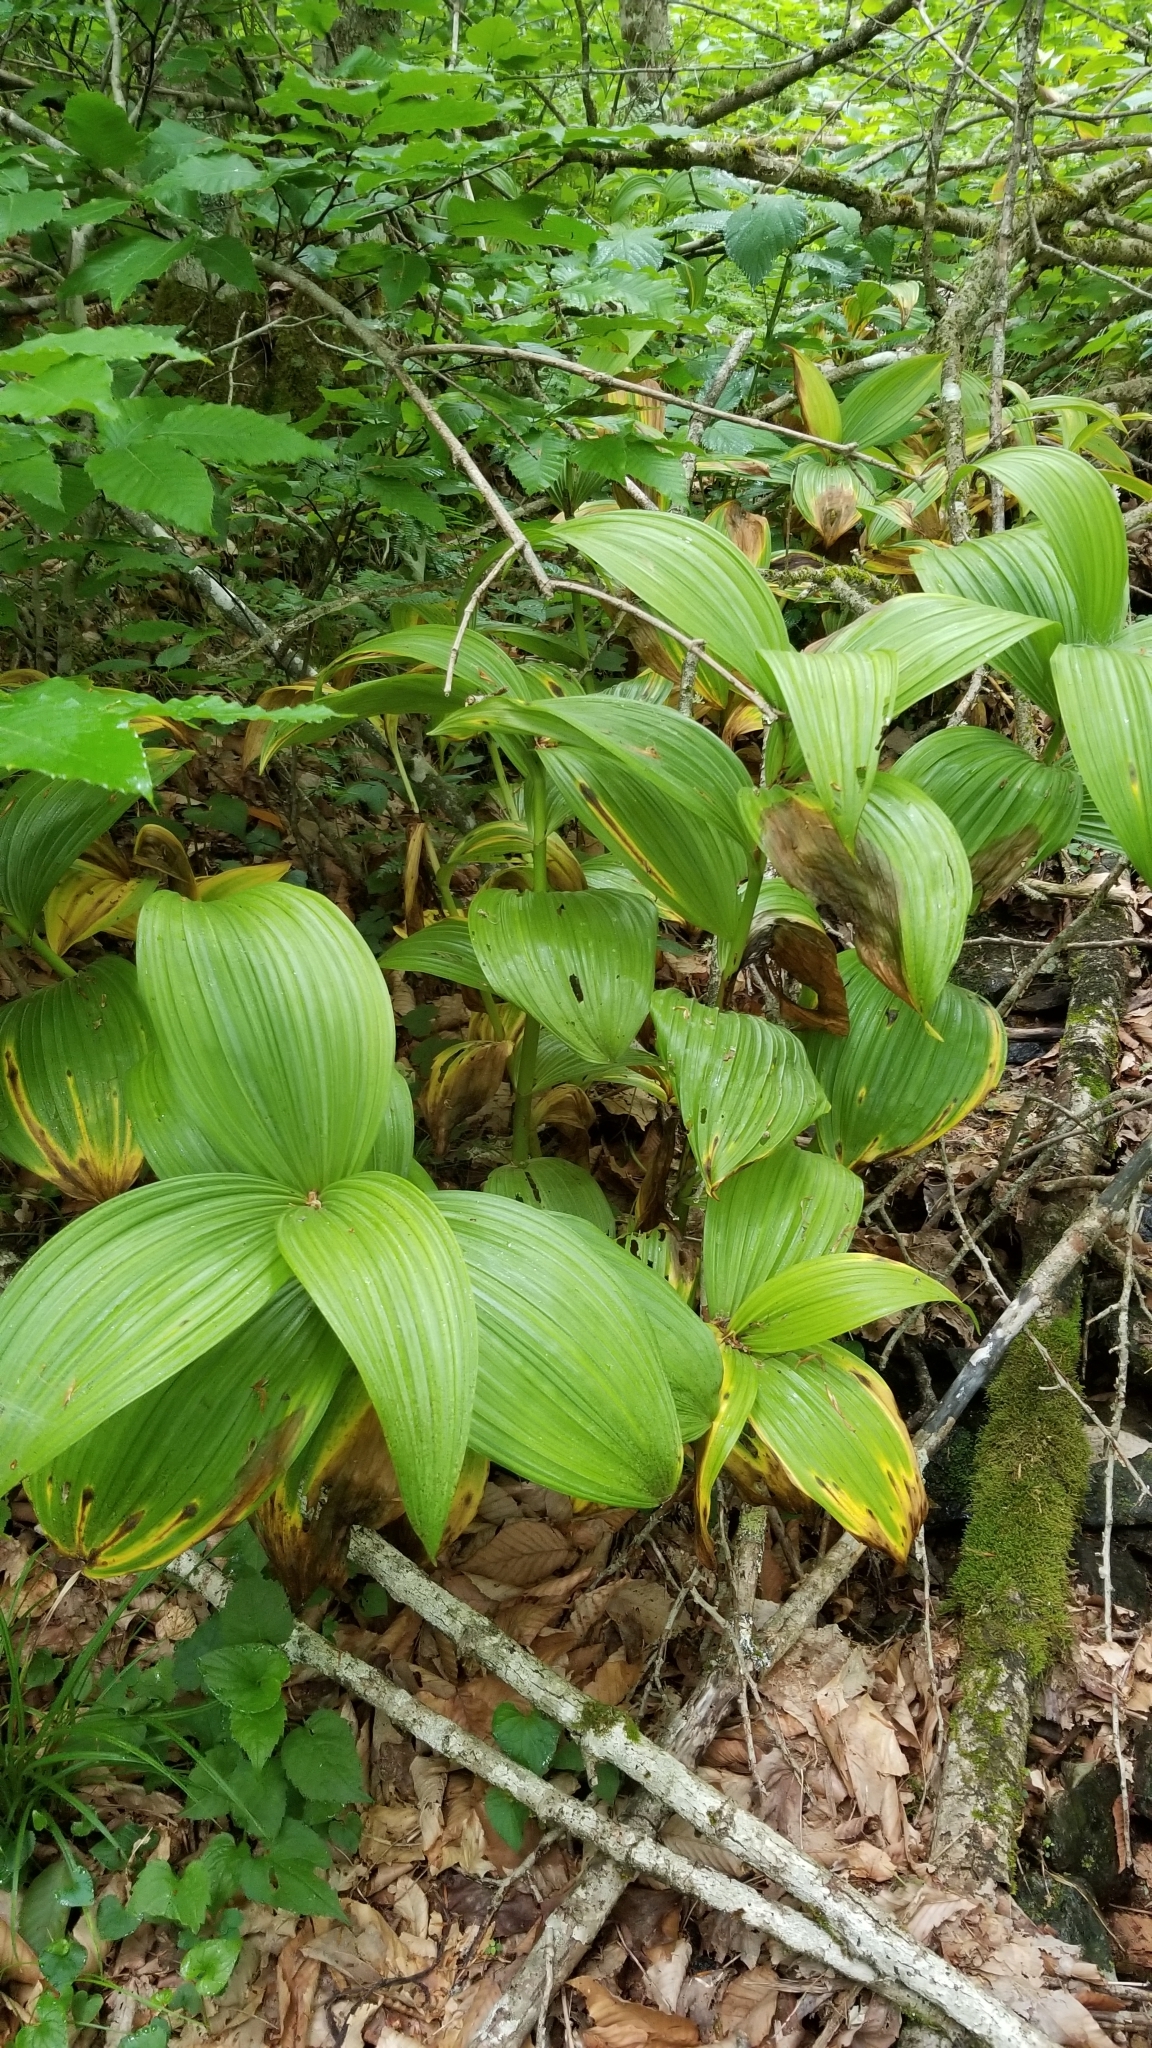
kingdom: Plantae
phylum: Tracheophyta
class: Liliopsida
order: Liliales
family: Melanthiaceae
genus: Veratrum
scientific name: Veratrum viride
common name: American false hellebore
